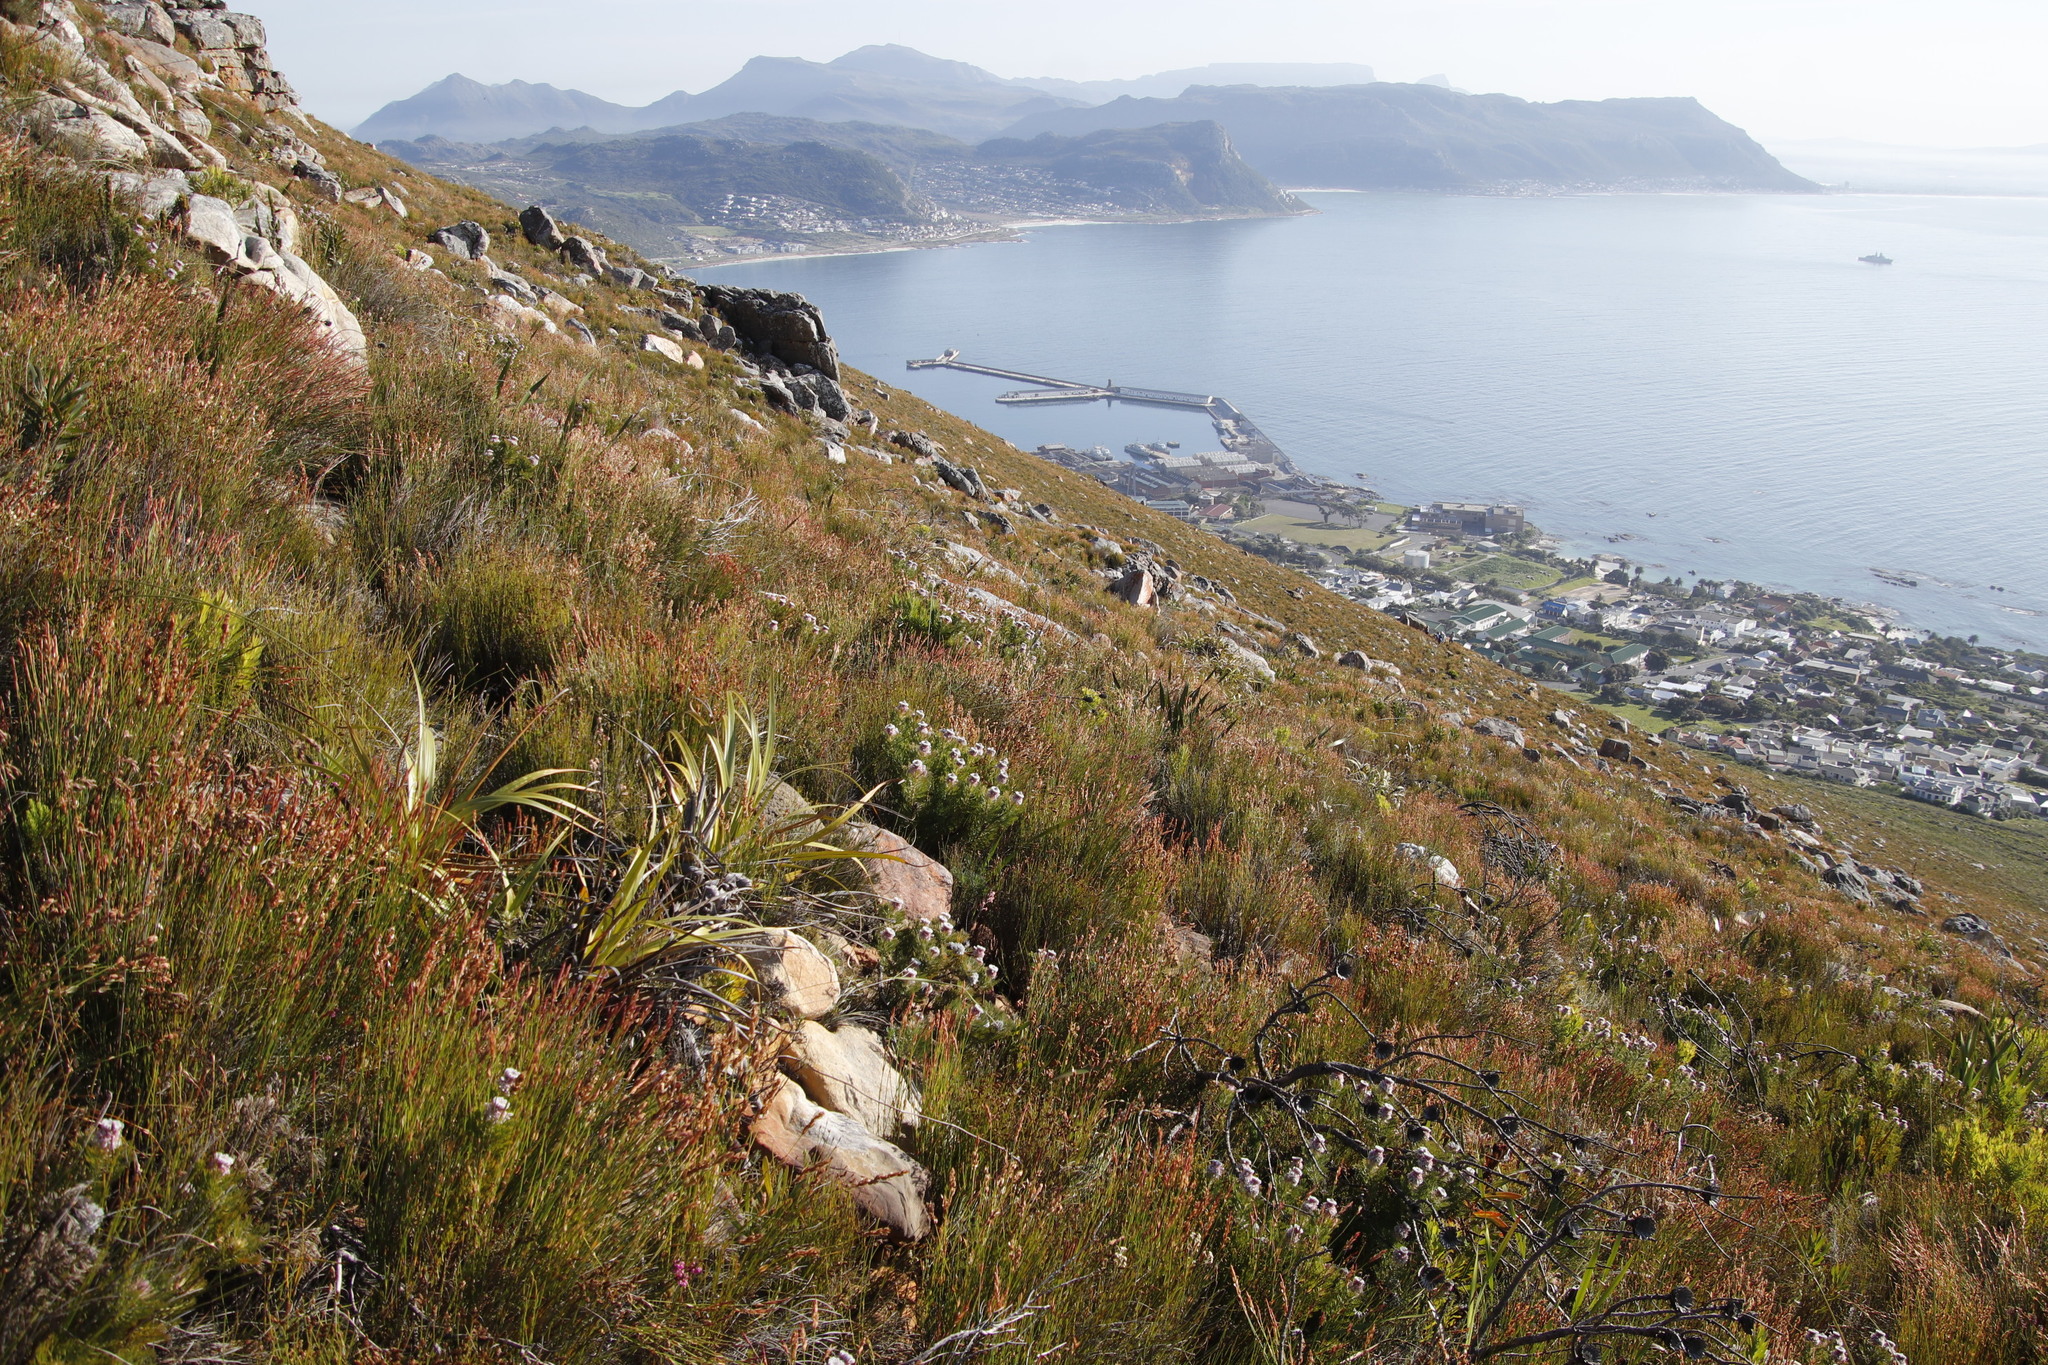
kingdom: Plantae
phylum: Tracheophyta
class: Magnoliopsida
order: Proteales
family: Proteaceae
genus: Serruria
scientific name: Serruria hirsuta
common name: Swartkops spiderhead
